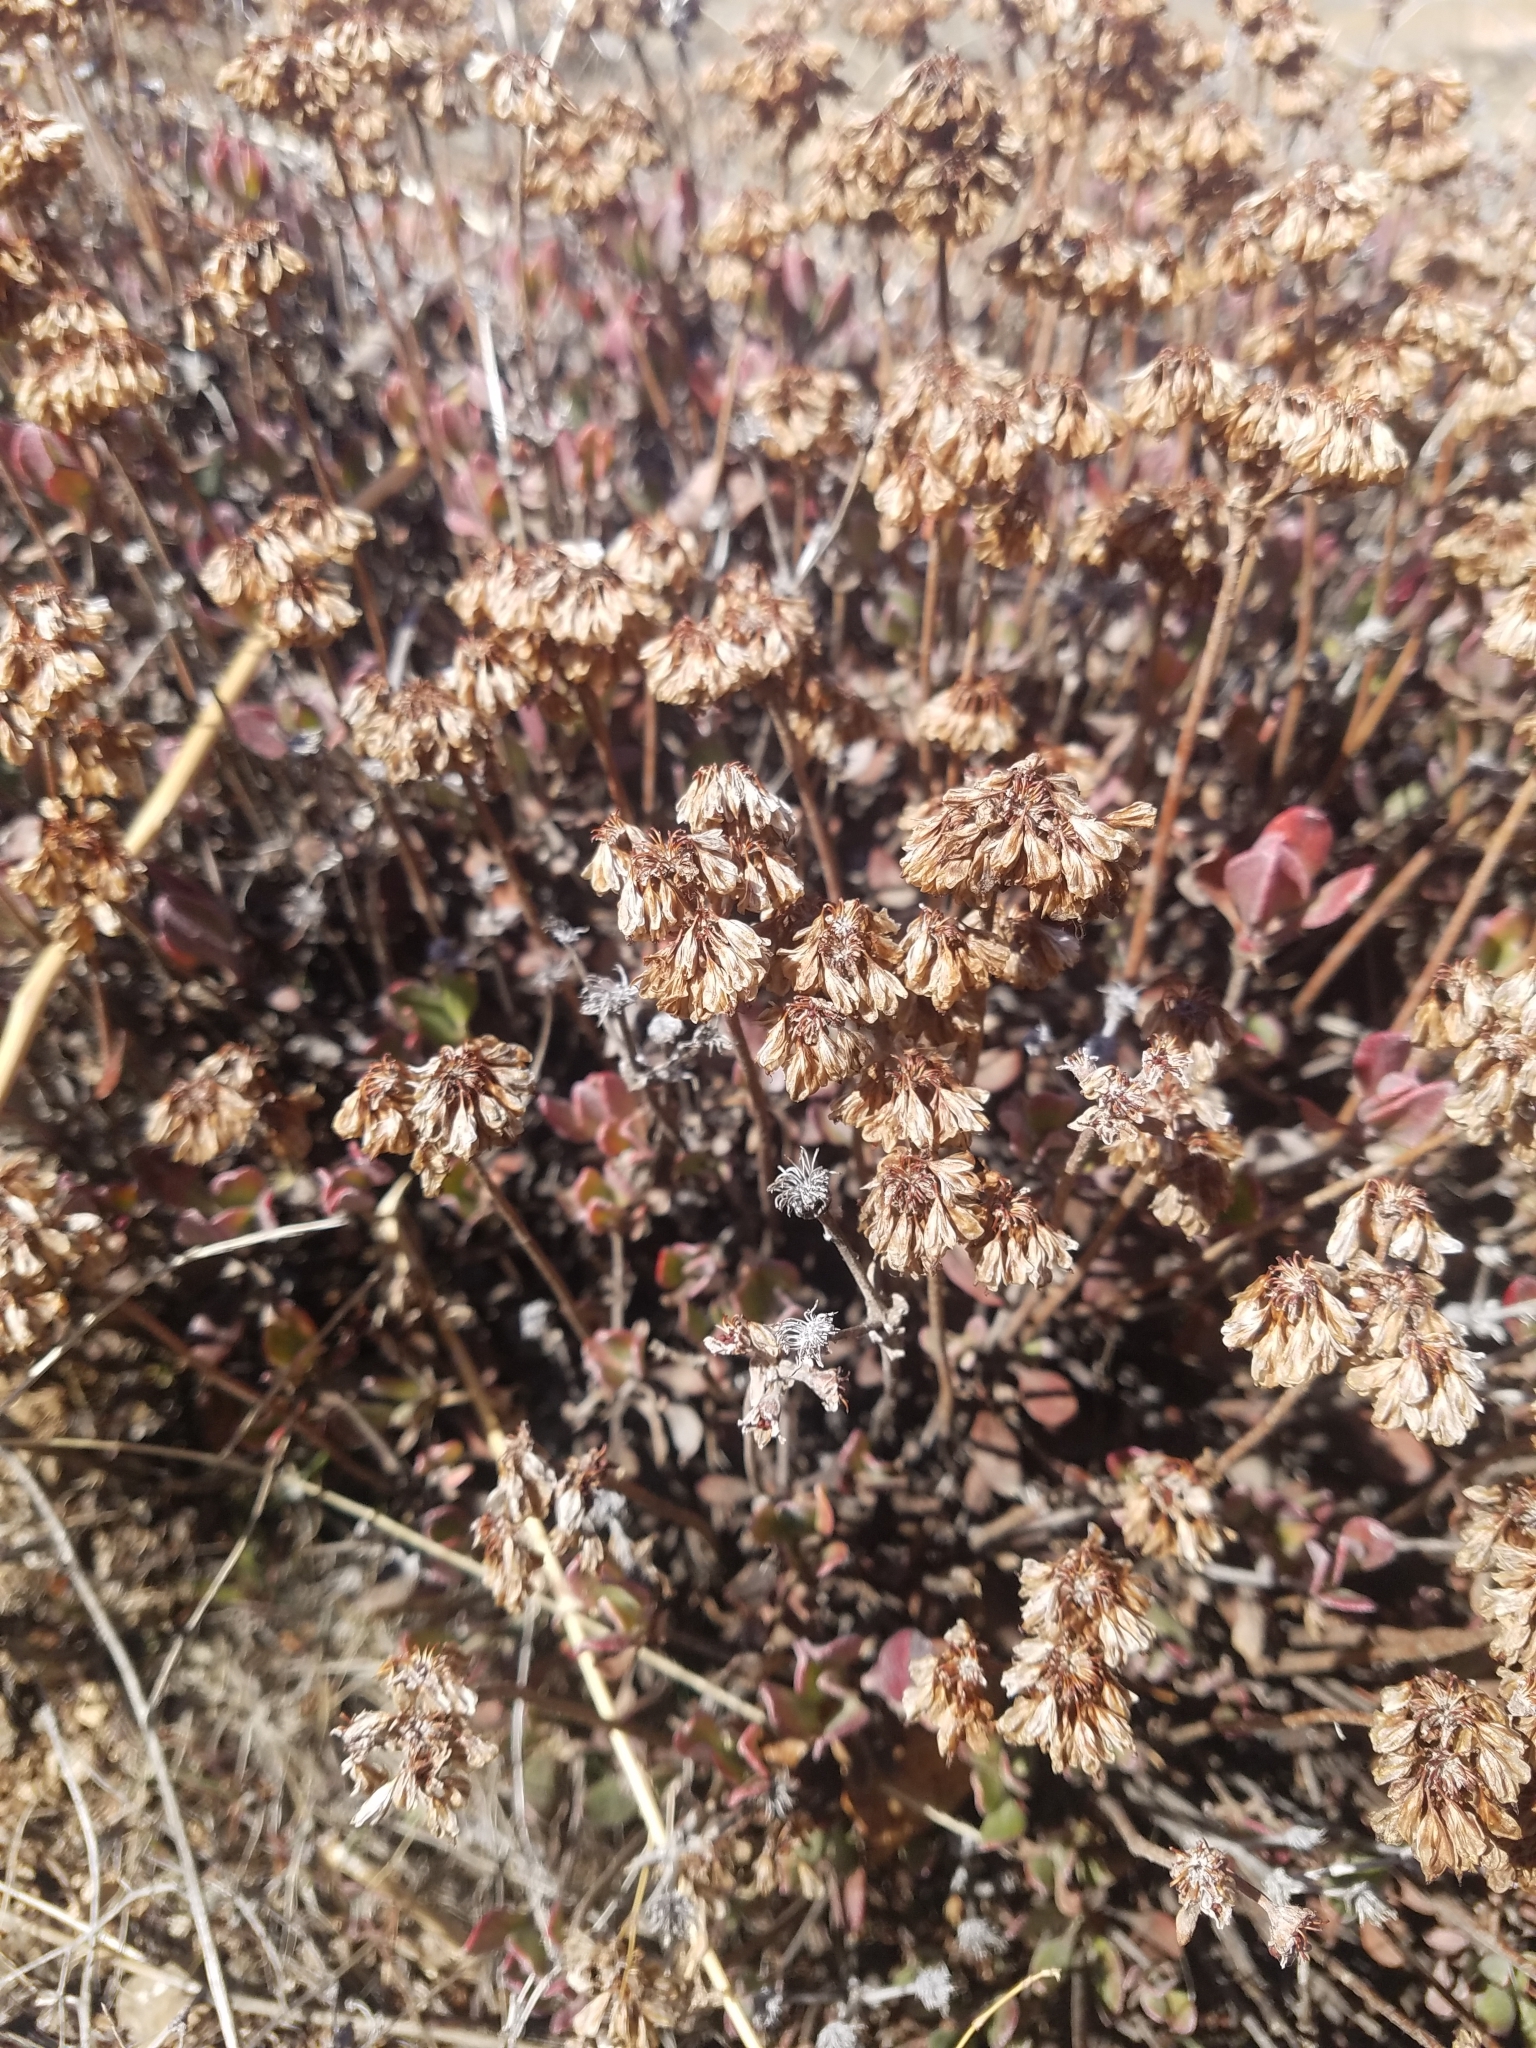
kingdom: Plantae
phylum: Tracheophyta
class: Magnoliopsida
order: Caryophyllales
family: Polygonaceae
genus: Eriogonum
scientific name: Eriogonum umbellatum
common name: Sulfur-buckwheat
